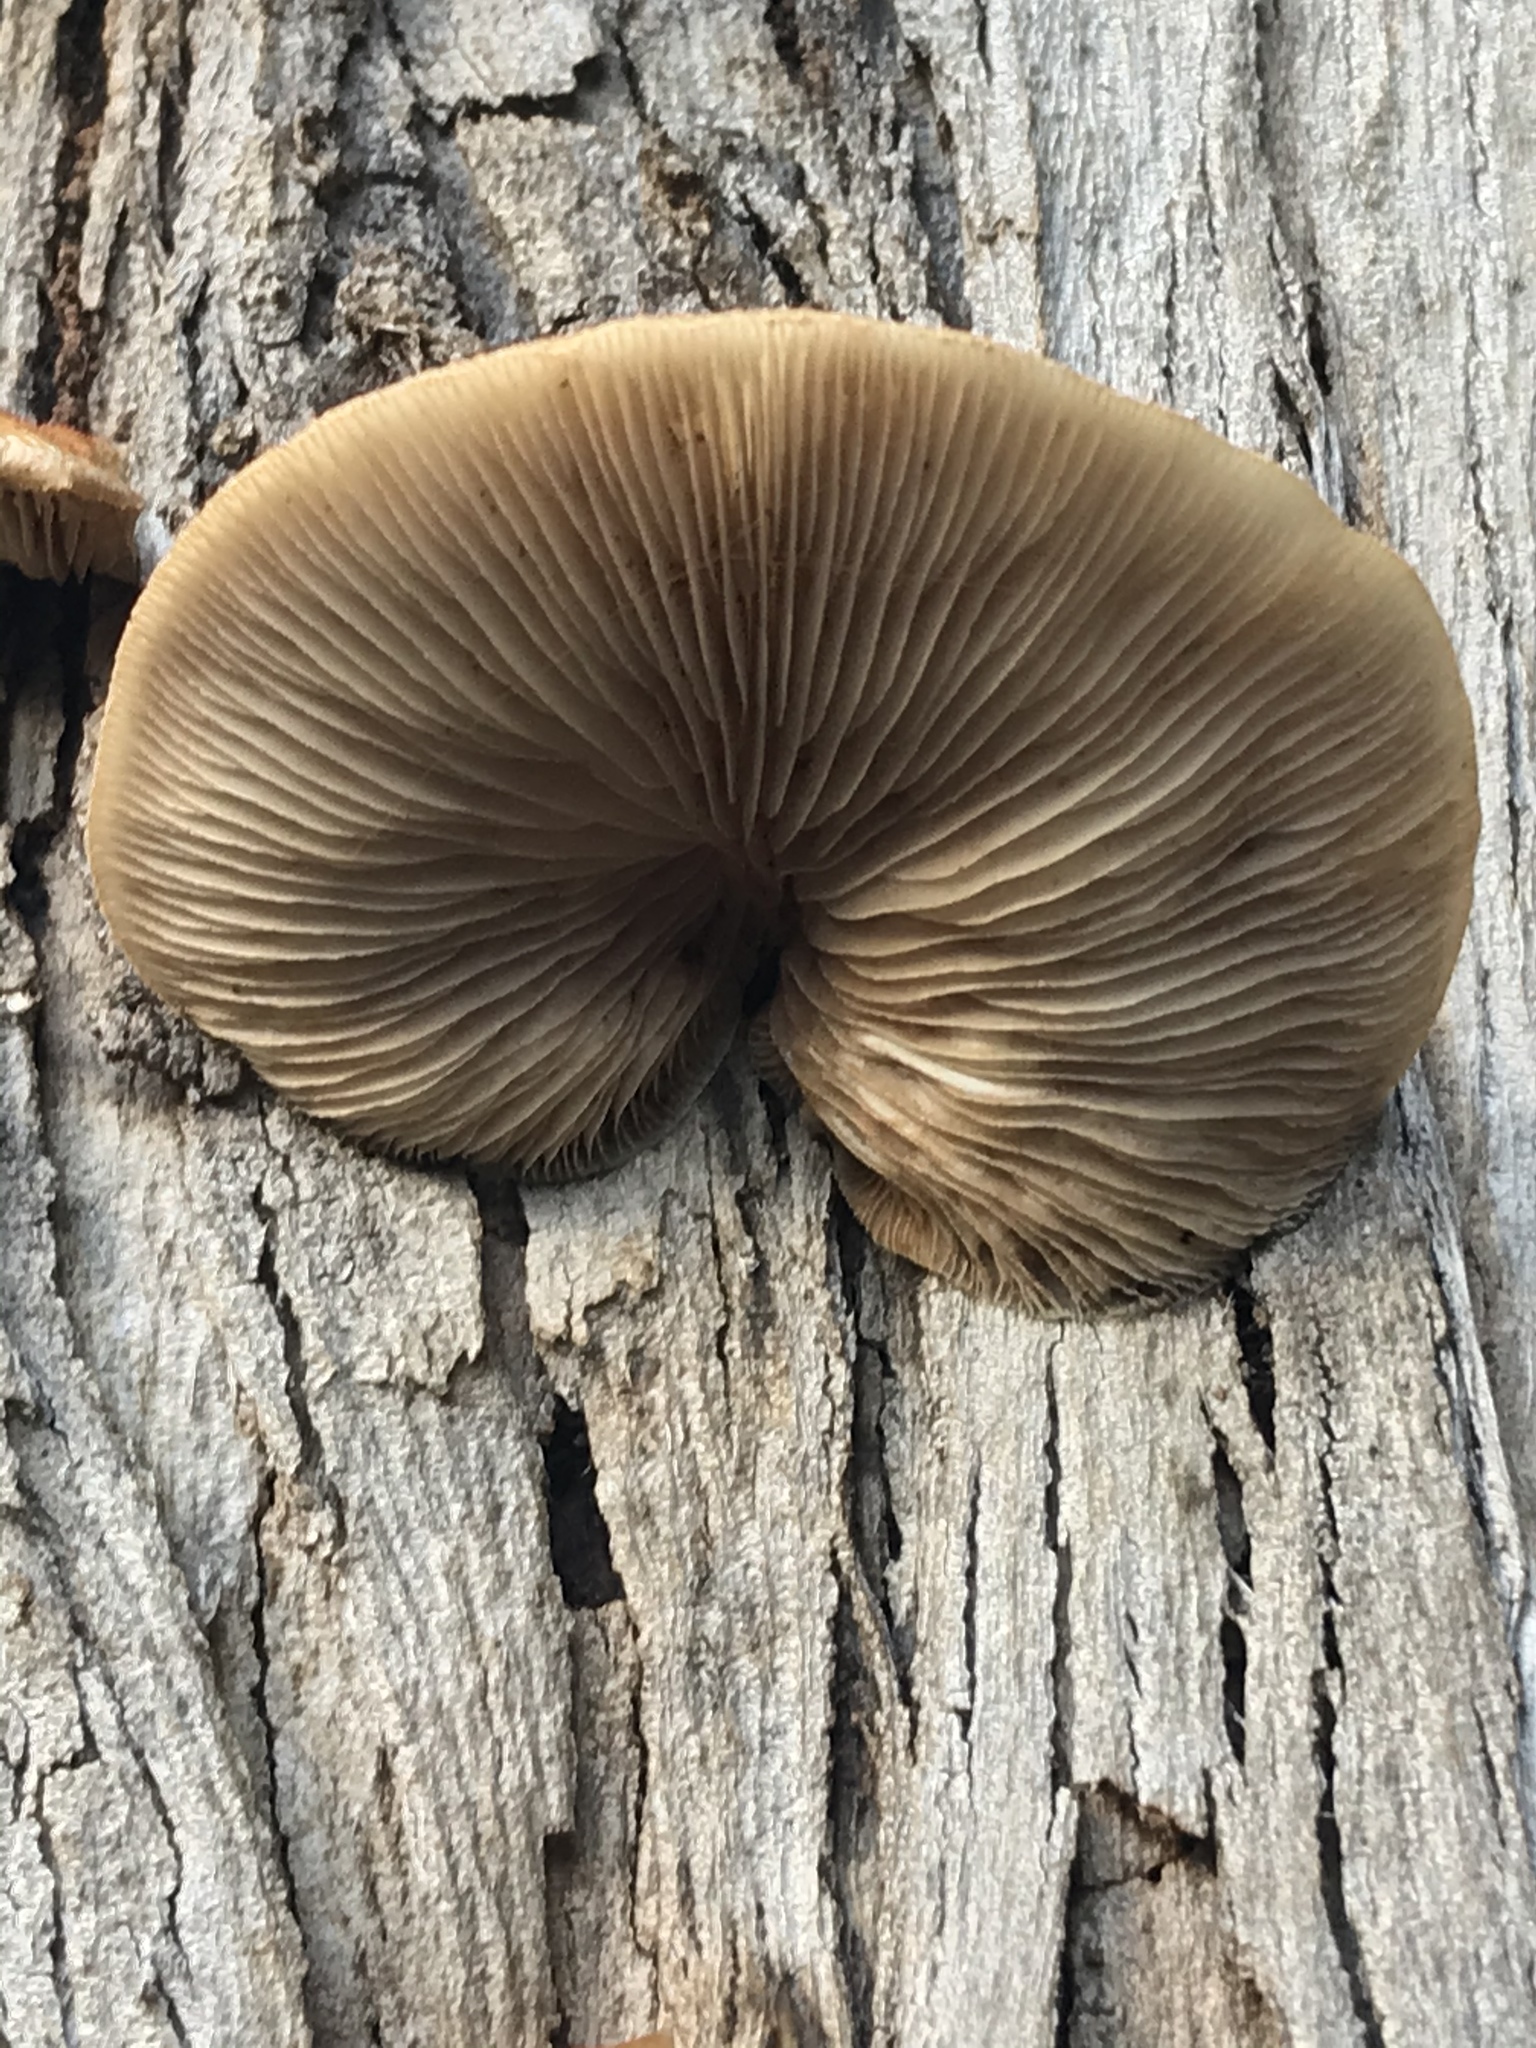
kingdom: Fungi
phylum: Basidiomycota
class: Agaricomycetes
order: Agaricales
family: Crepidotaceae
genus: Crepidotus
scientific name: Crepidotus mollis
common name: Peeling oysterling
